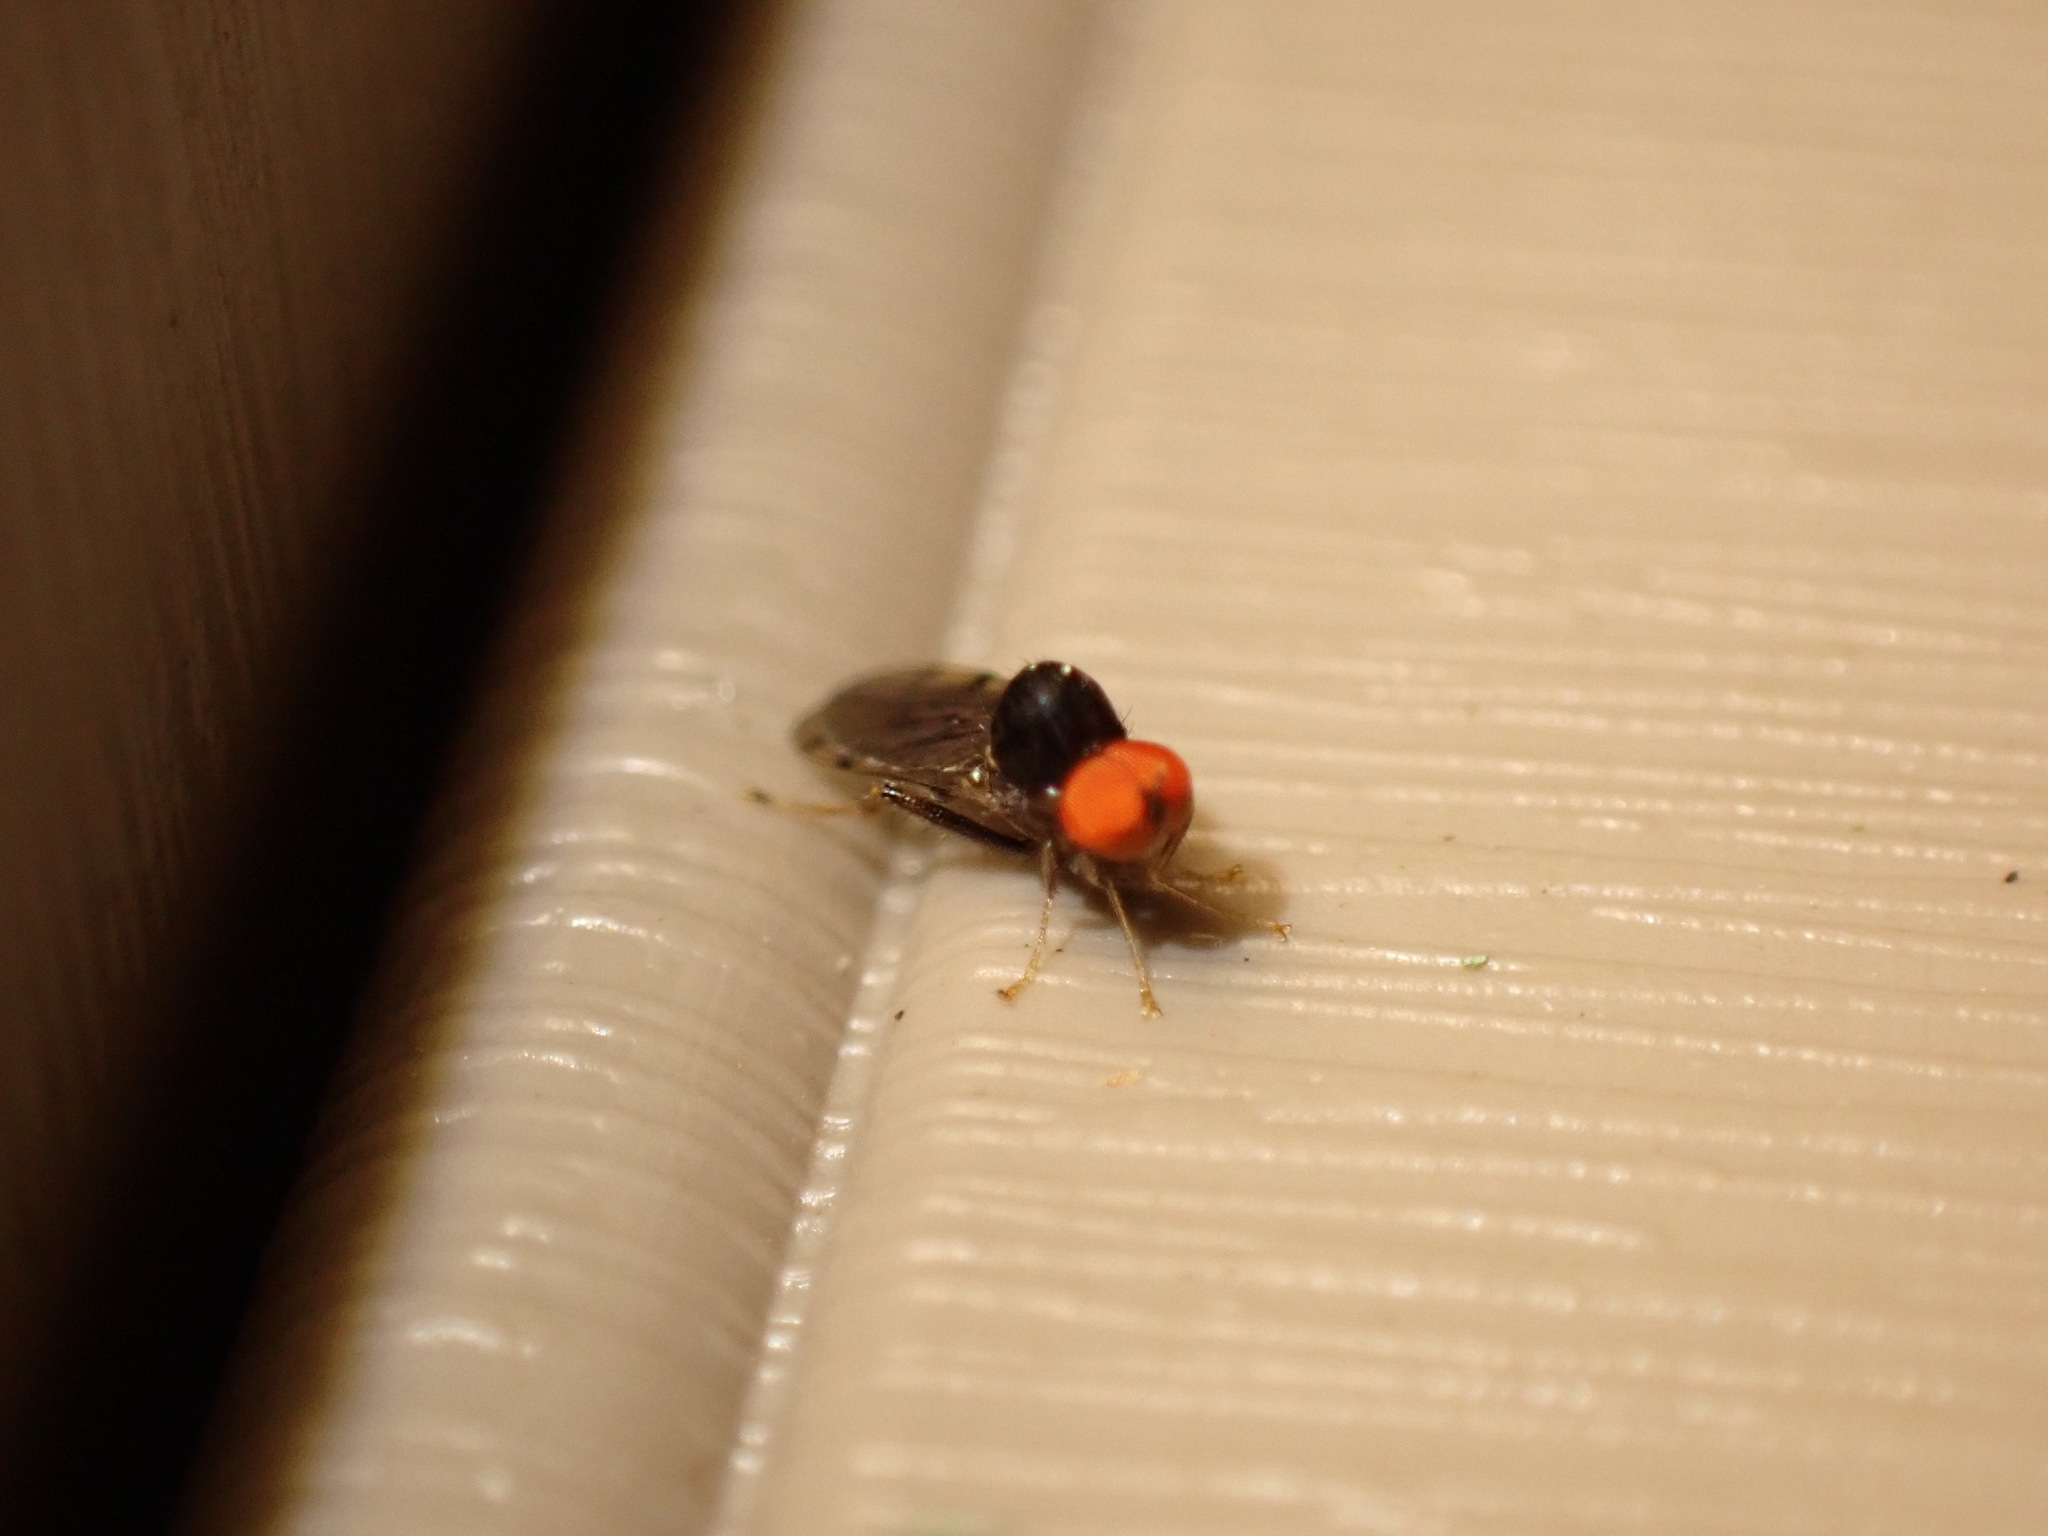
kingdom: Animalia
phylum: Arthropoda
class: Insecta
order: Diptera
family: Hybotidae
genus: Syneches
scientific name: Syneches simplex
